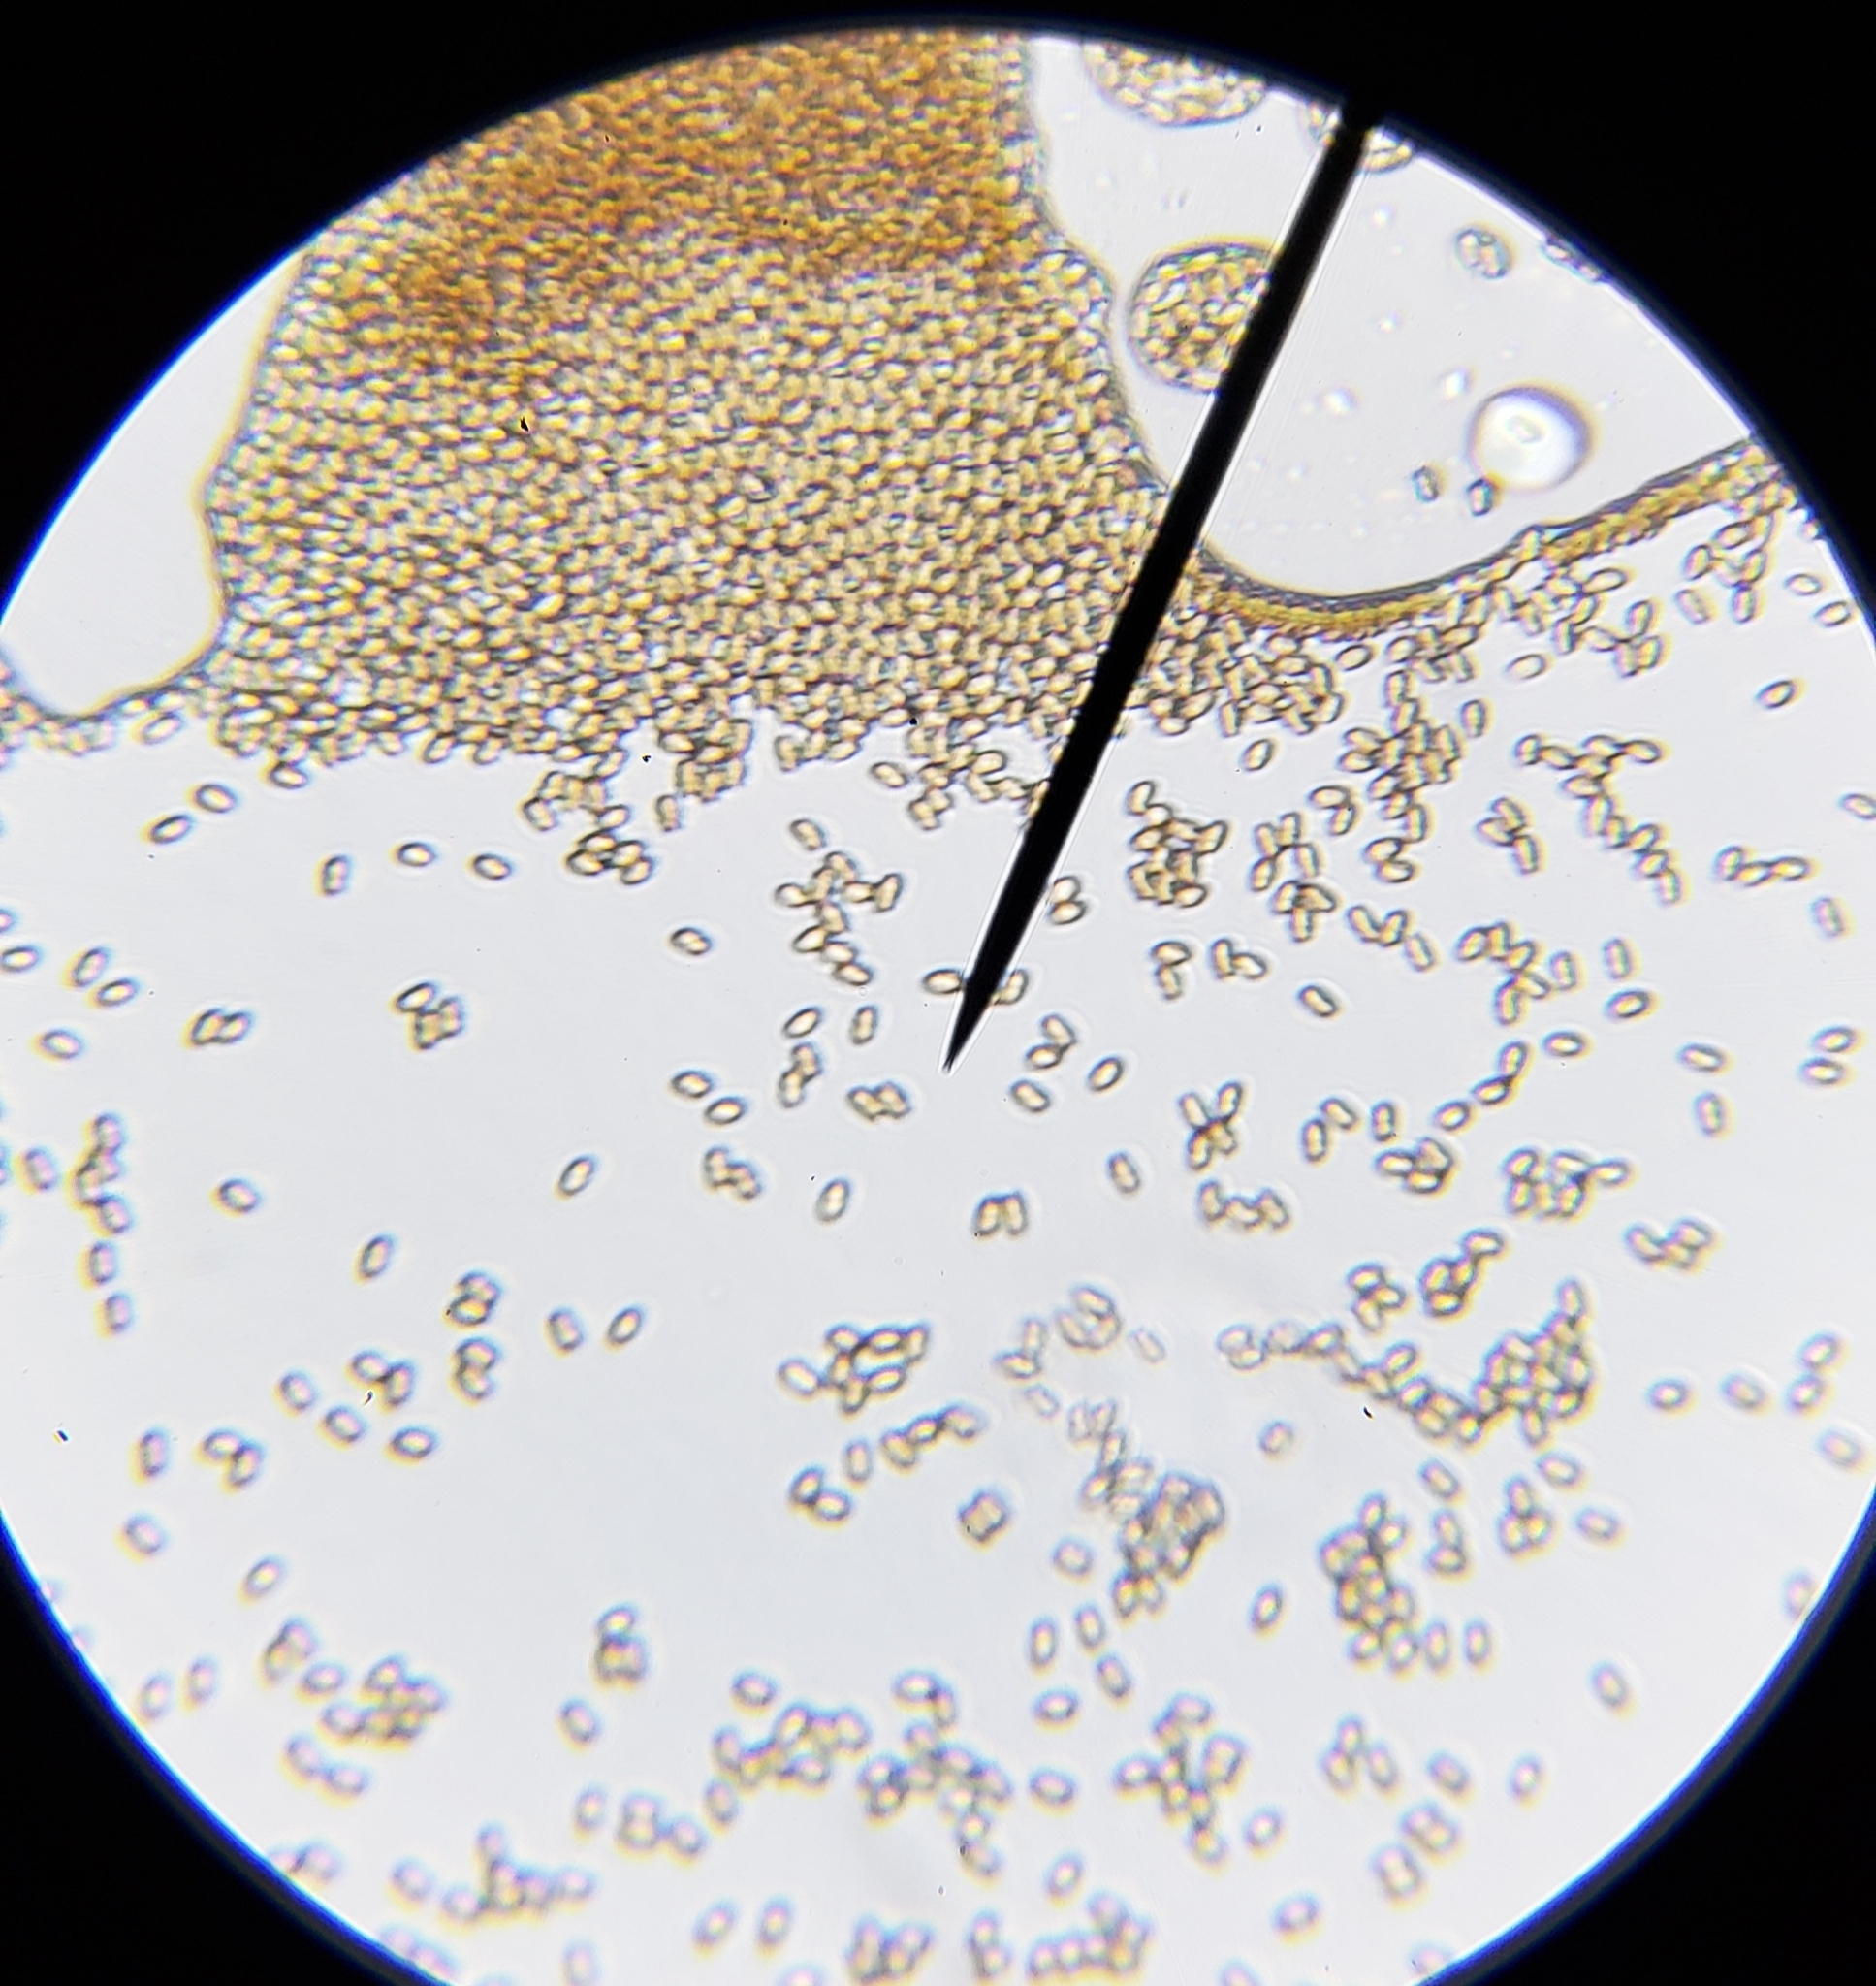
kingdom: Fungi
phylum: Basidiomycota
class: Agaricomycetes
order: Agaricales
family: Psathyrellaceae
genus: Candolleomyces
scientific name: Candolleomyces candolleanus
